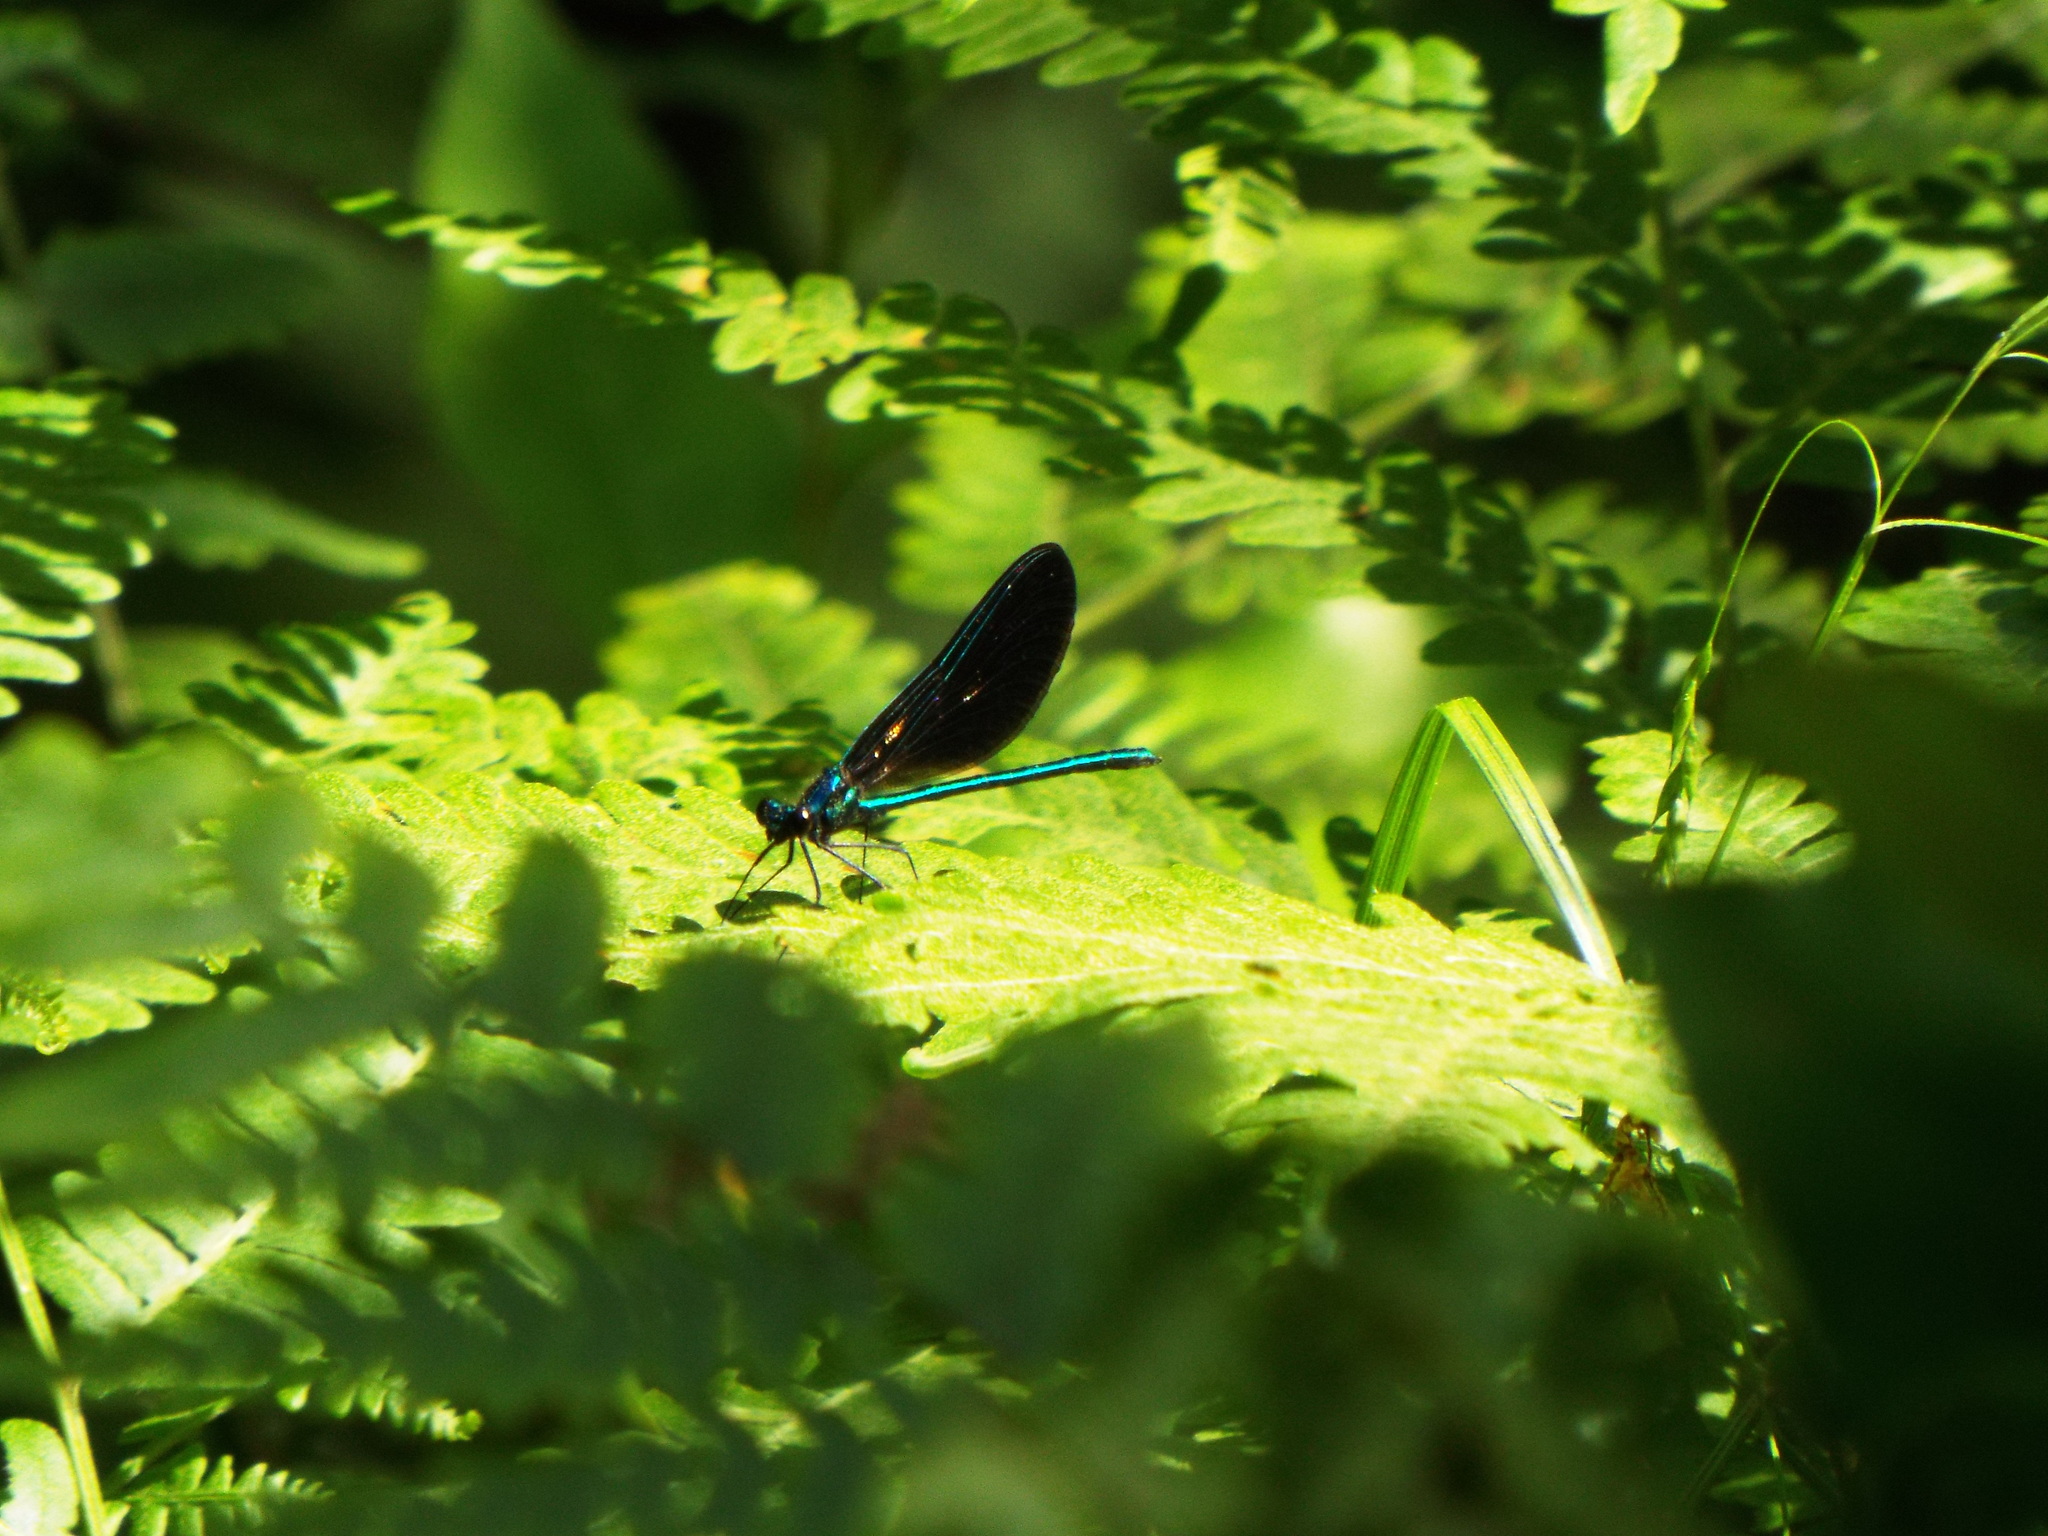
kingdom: Animalia
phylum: Arthropoda
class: Insecta
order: Odonata
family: Calopterygidae
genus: Calopteryx
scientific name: Calopteryx maculata
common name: Ebony jewelwing
